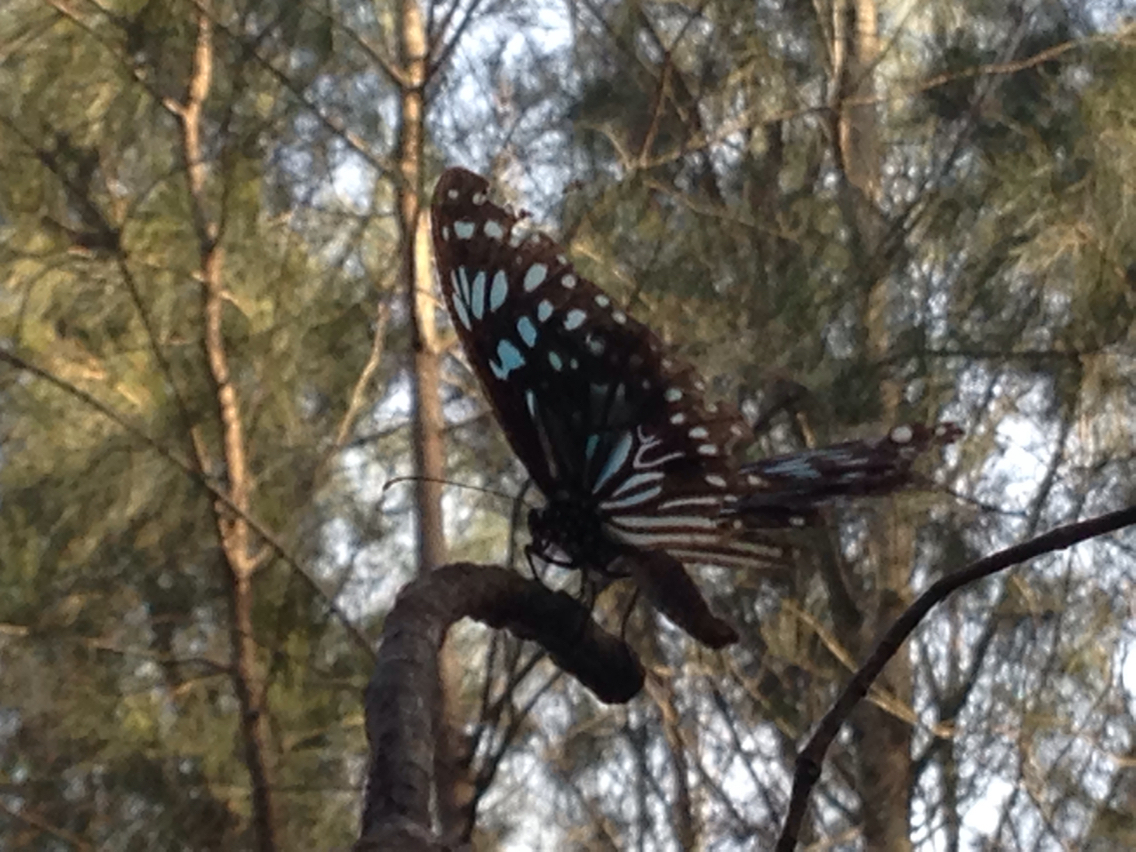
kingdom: Animalia
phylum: Arthropoda
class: Insecta
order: Lepidoptera
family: Nymphalidae
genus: Tirumala
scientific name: Tirumala hamata
